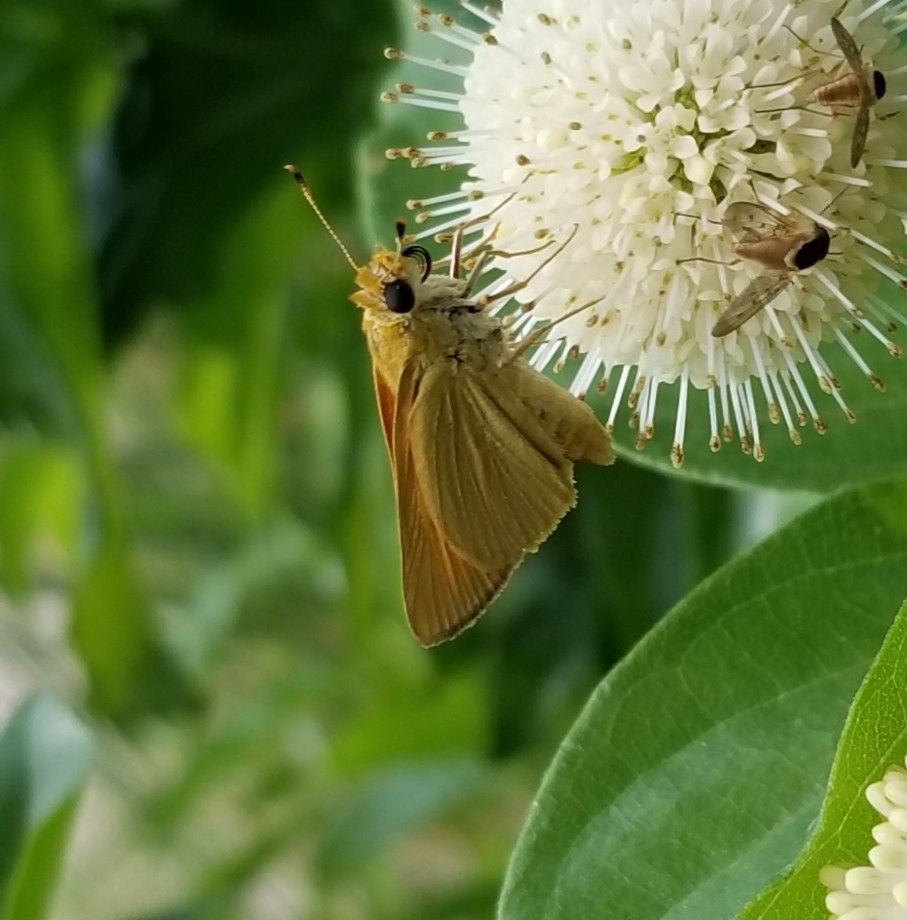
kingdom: Animalia
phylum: Arthropoda
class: Insecta
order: Lepidoptera
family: Hesperiidae
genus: Atrytone
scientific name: Atrytone delaware
